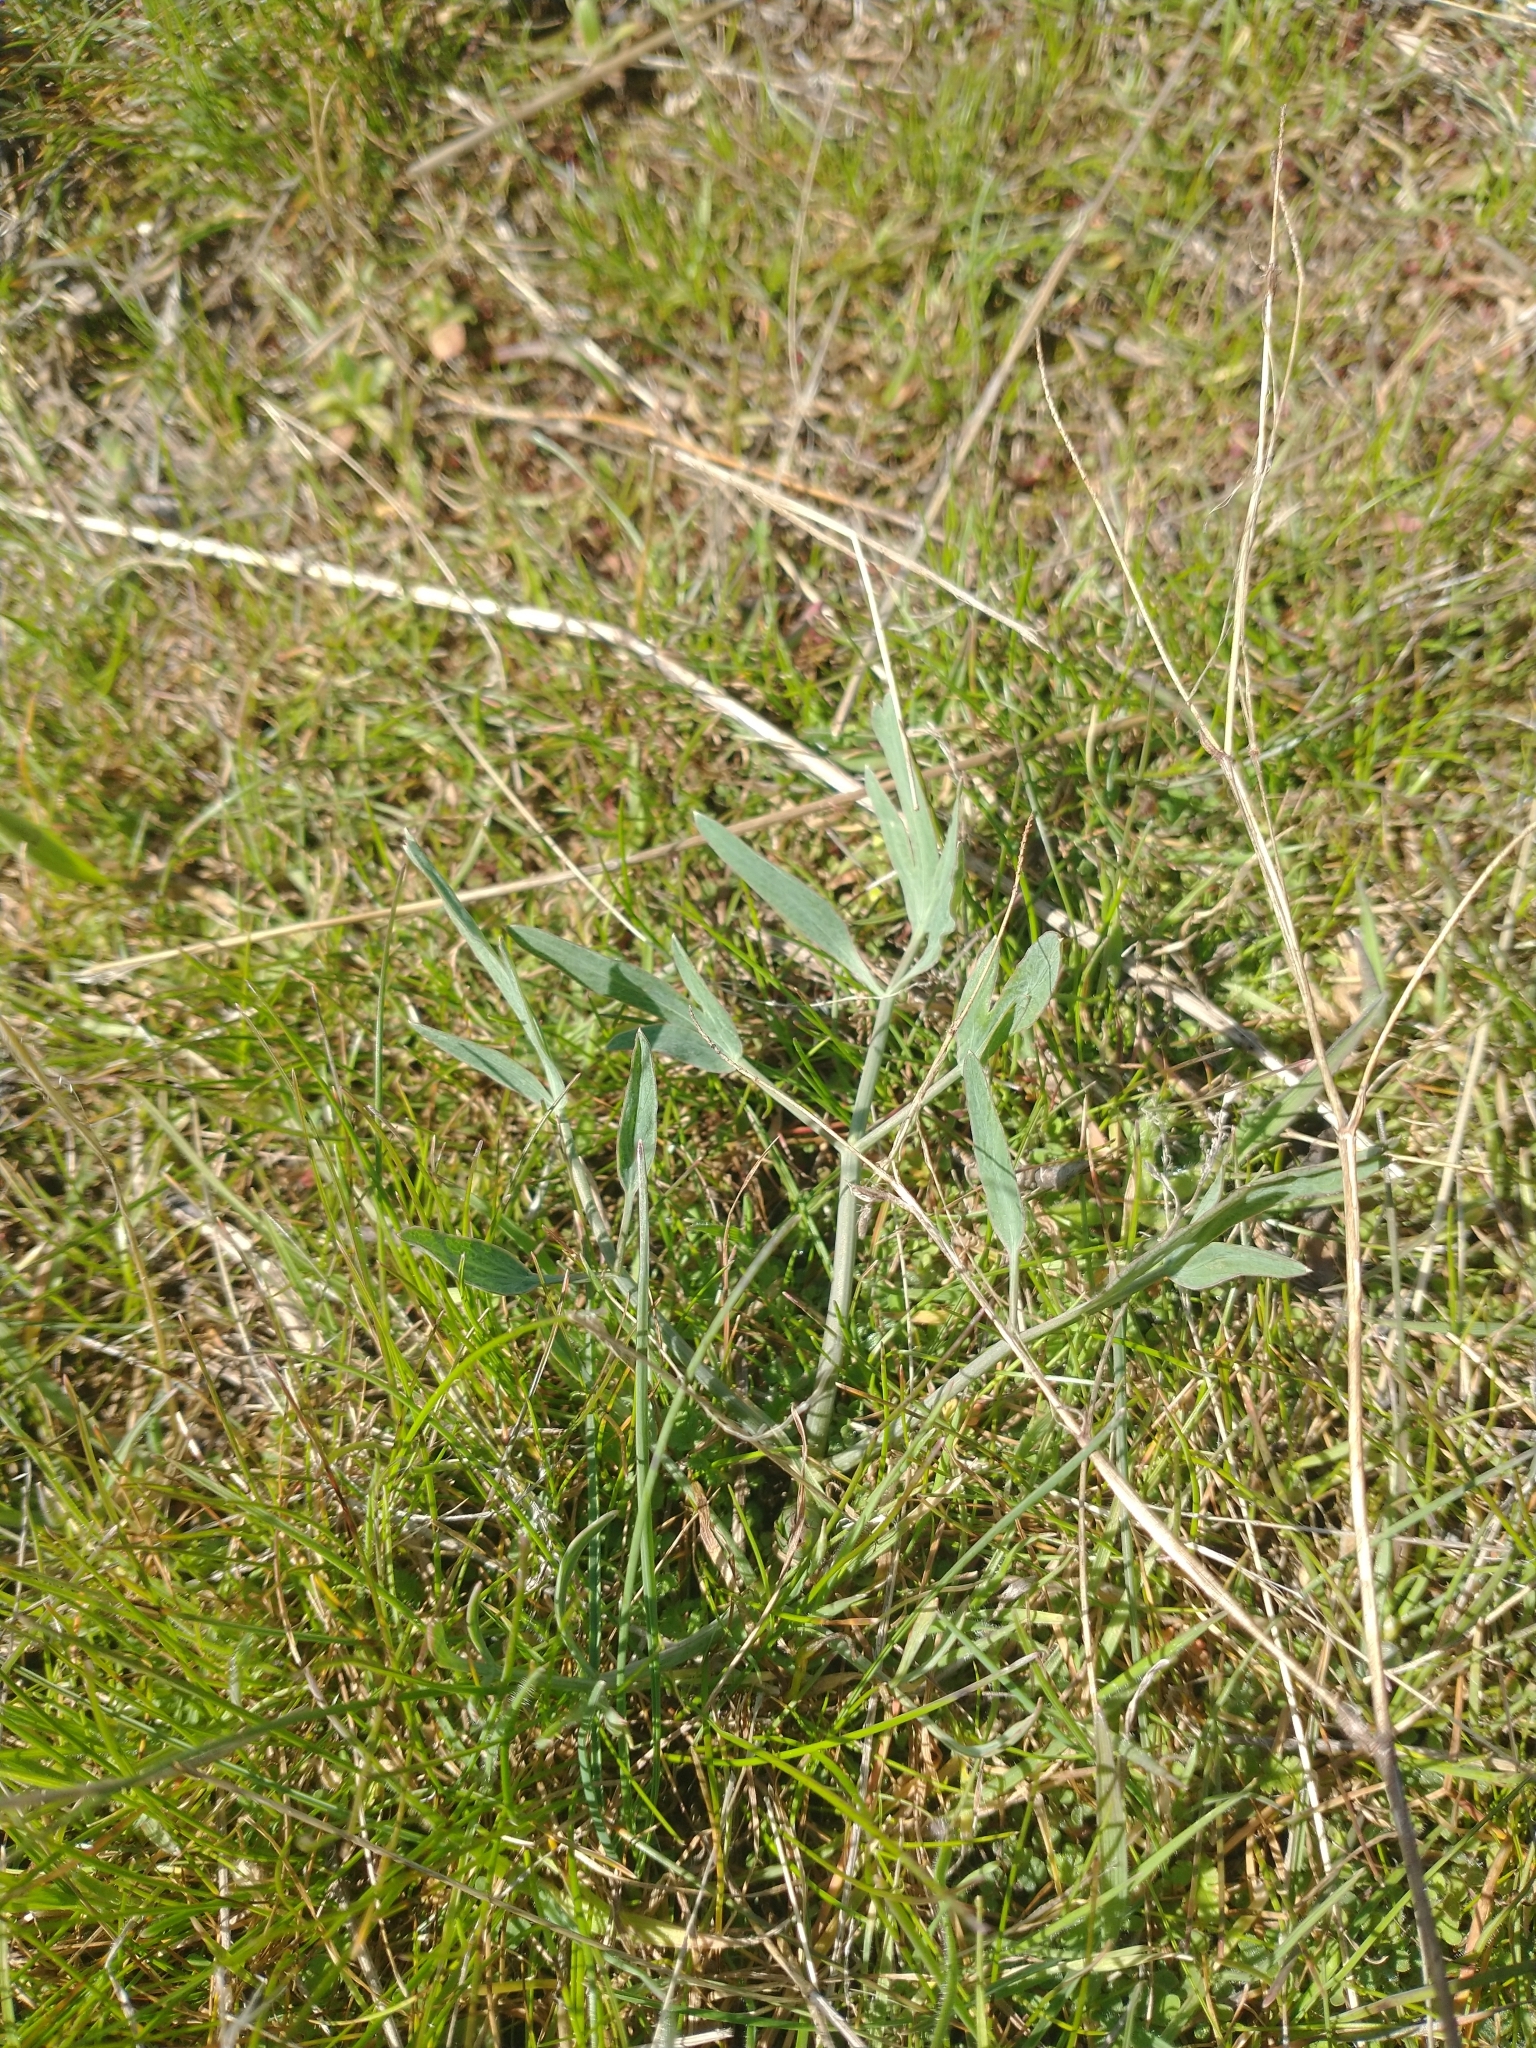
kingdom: Plantae
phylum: Tracheophyta
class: Magnoliopsida
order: Apiales
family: Apiaceae
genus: Lomatium
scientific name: Lomatium nudicaule
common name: Pestle lomatium
